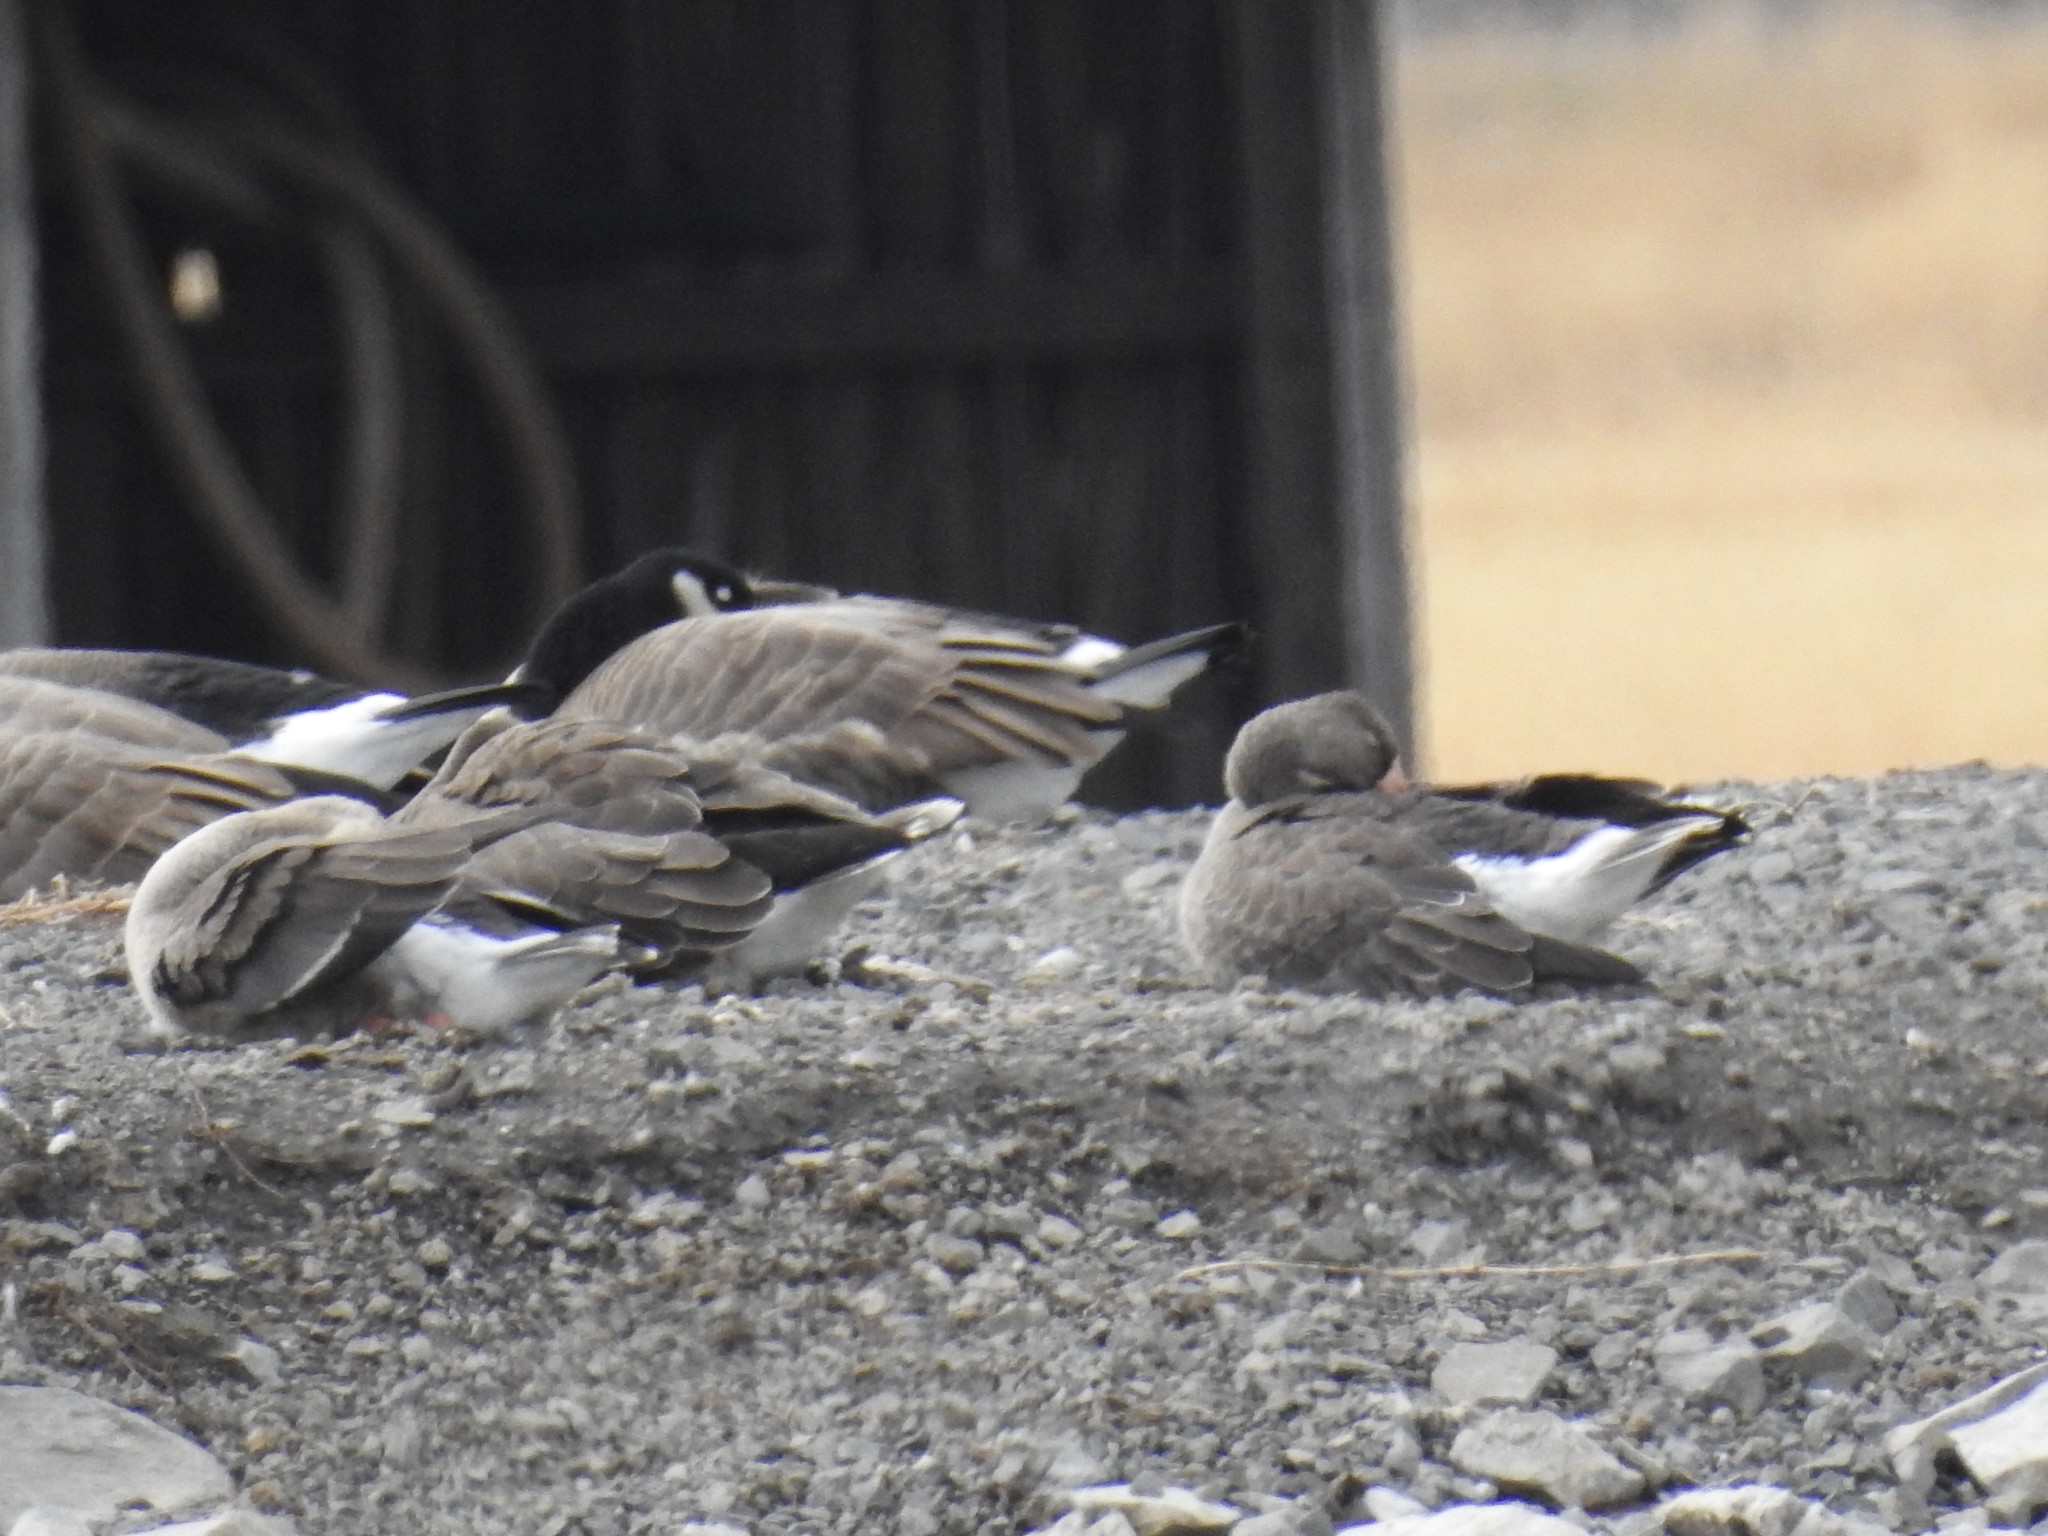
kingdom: Animalia
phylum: Chordata
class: Aves
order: Anseriformes
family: Anatidae
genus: Anser
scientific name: Anser albifrons
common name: Greater white-fronted goose
